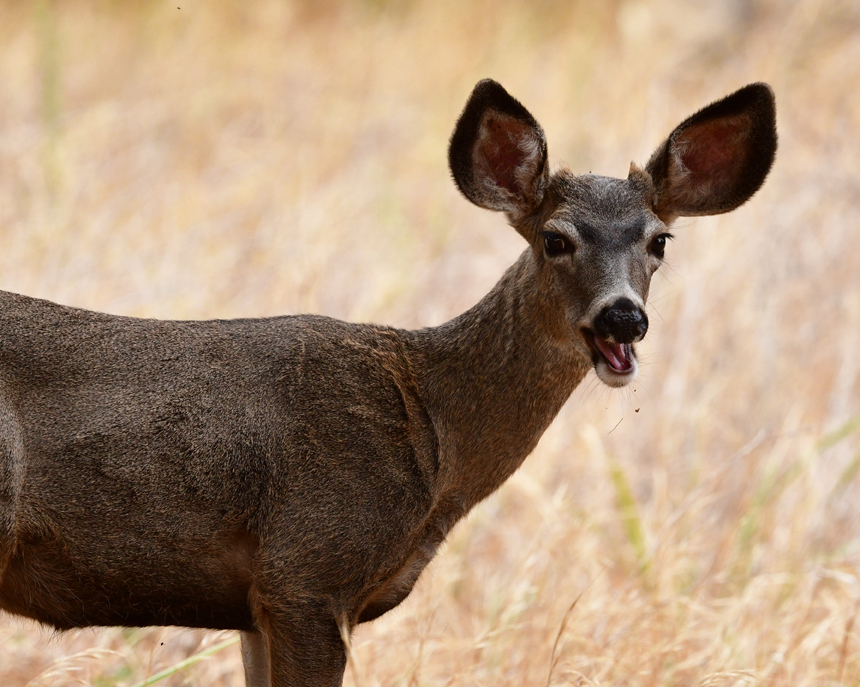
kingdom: Animalia
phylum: Chordata
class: Mammalia
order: Artiodactyla
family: Cervidae
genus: Odocoileus
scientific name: Odocoileus hemionus
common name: Mule deer
